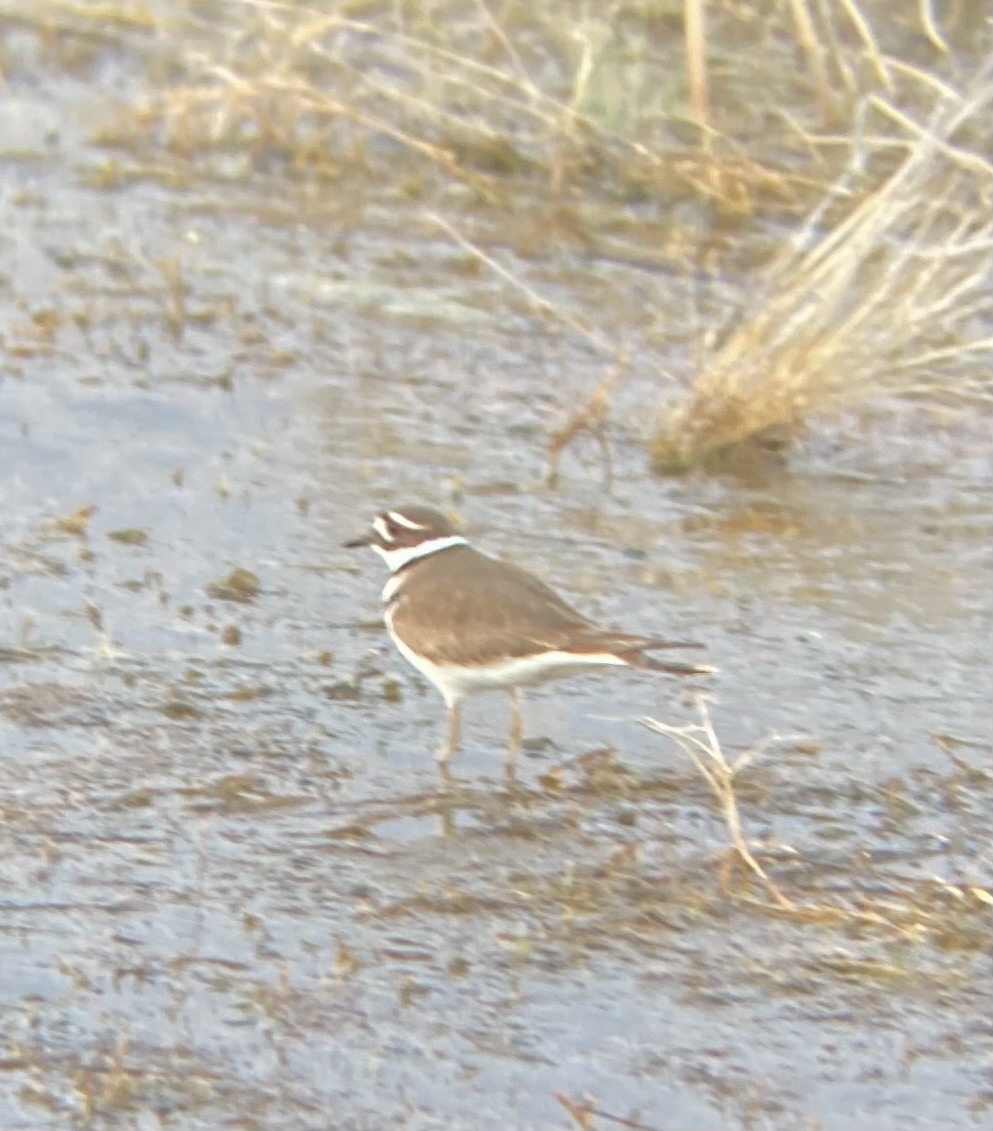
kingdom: Animalia
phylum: Chordata
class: Aves
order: Charadriiformes
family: Charadriidae
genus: Charadrius
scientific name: Charadrius vociferus
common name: Killdeer
